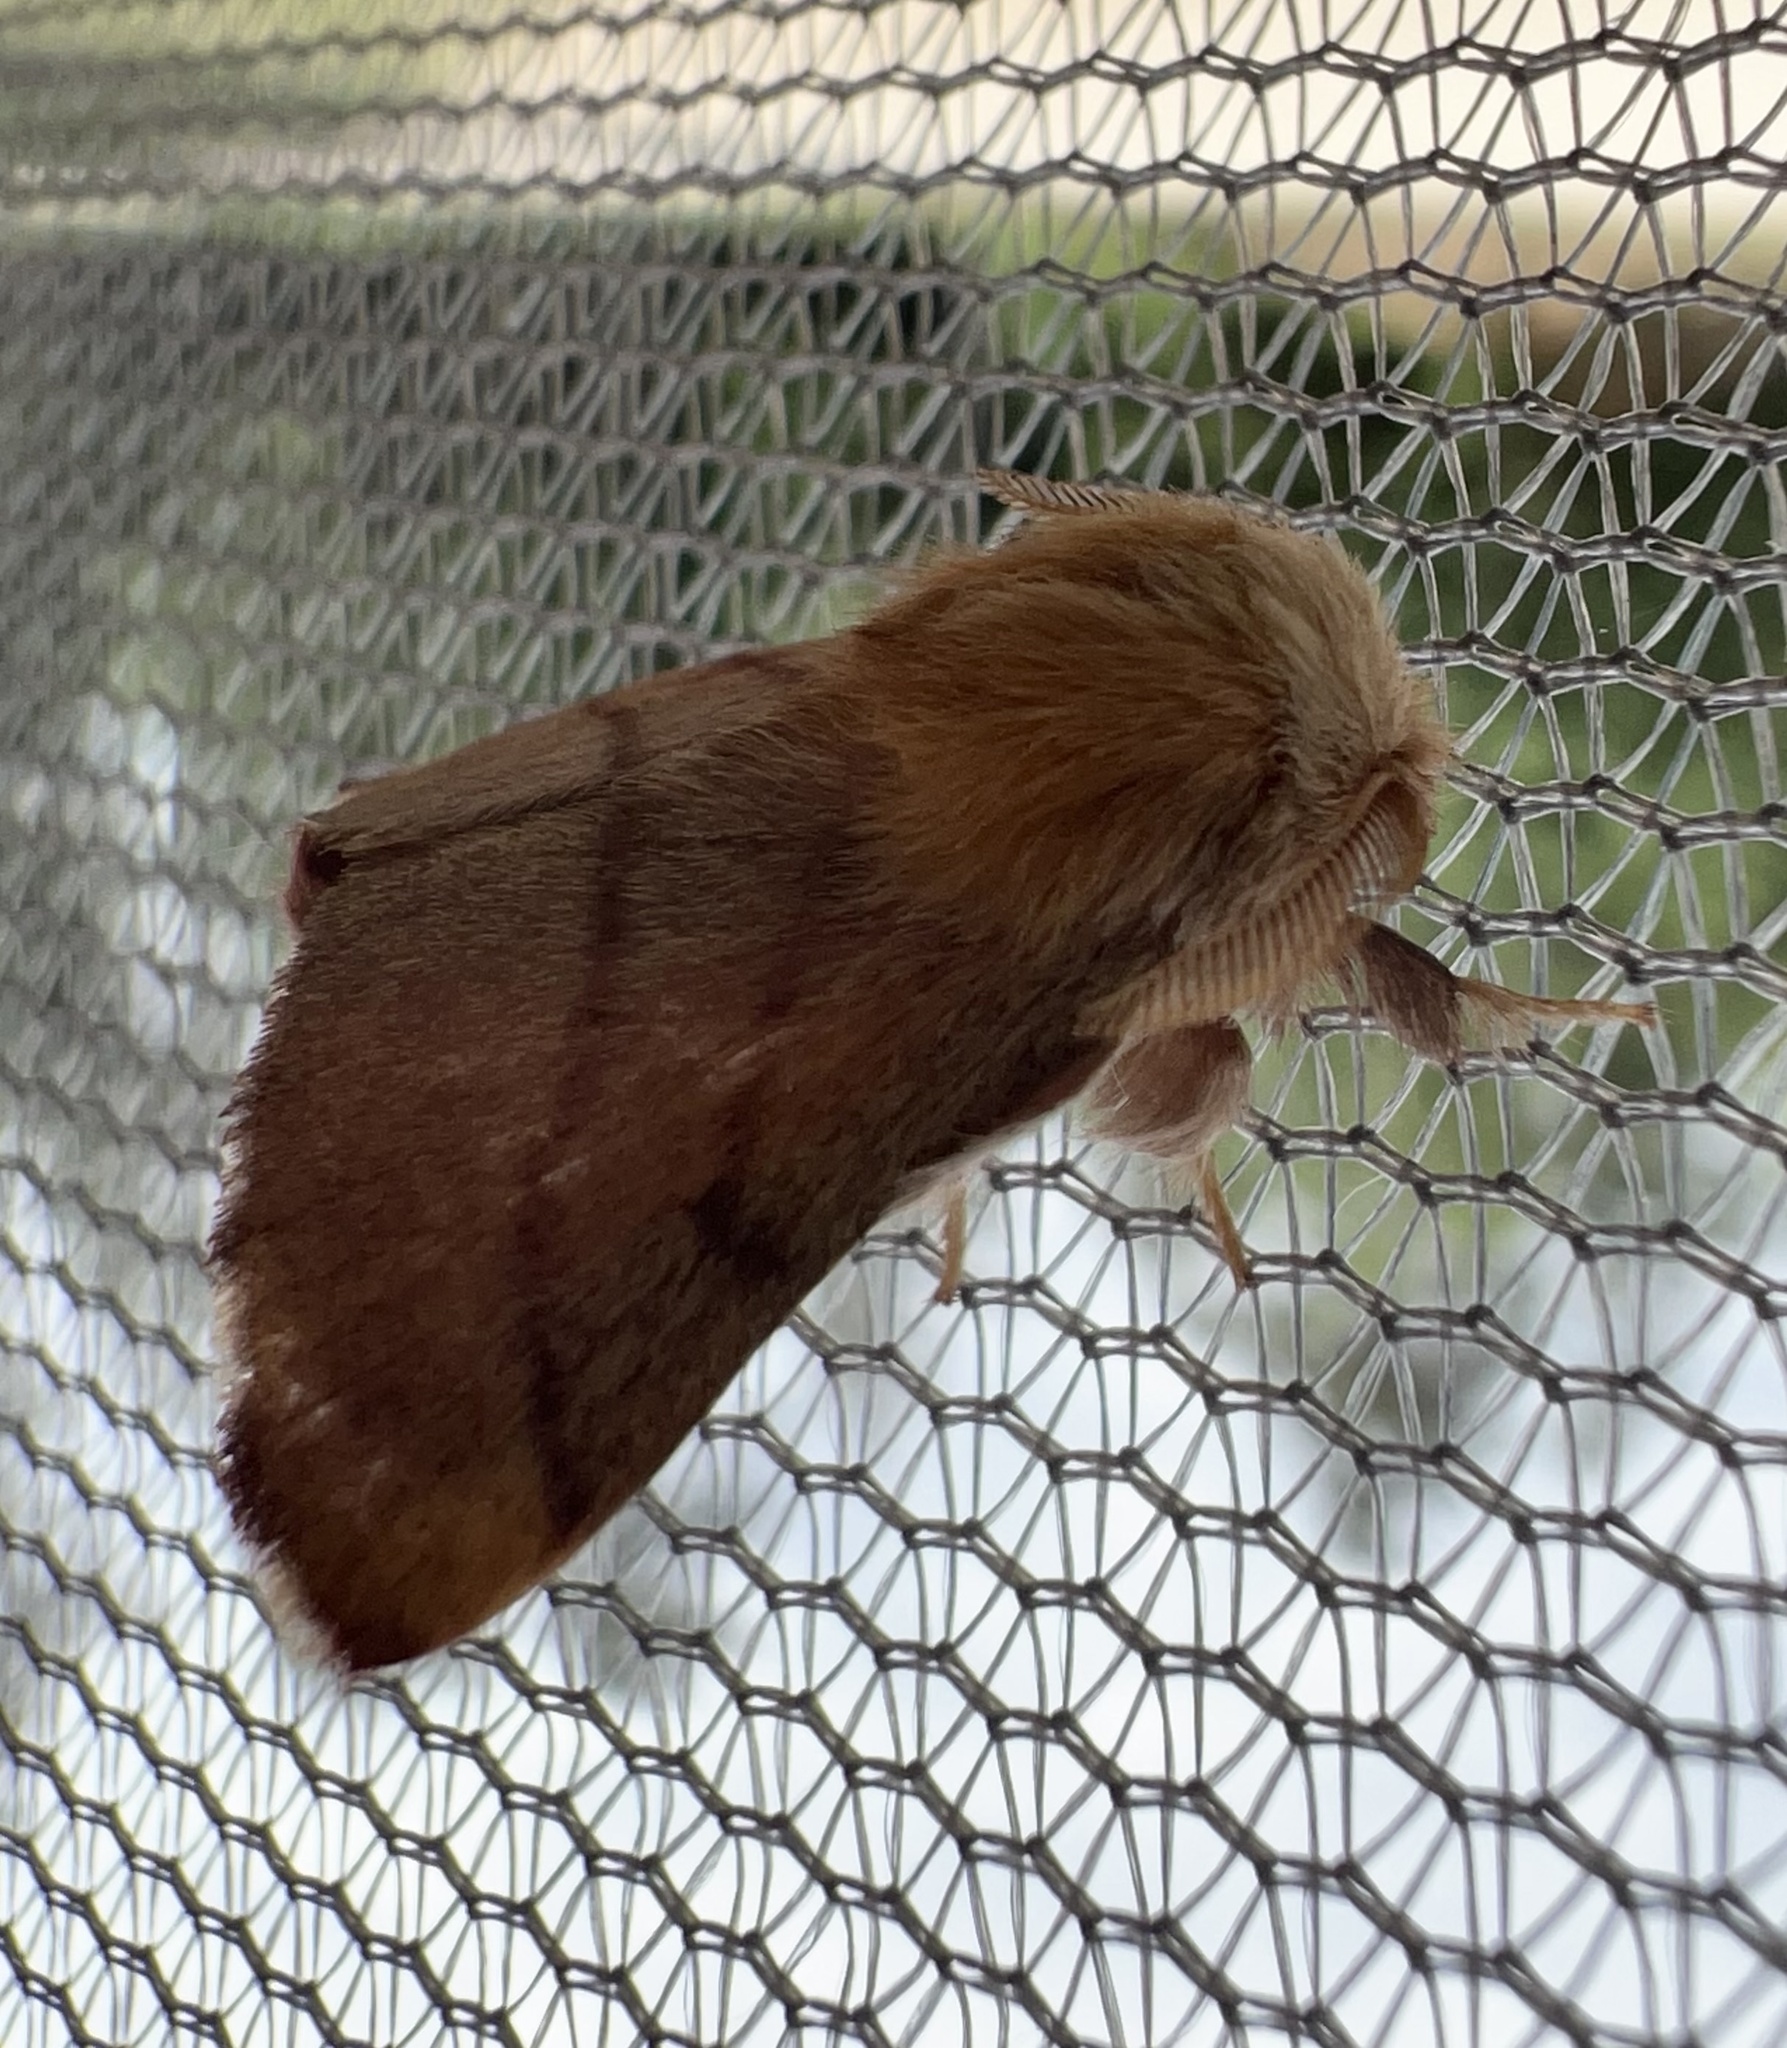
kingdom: Animalia
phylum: Arthropoda
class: Insecta
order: Lepidoptera
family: Lasiocampidae
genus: Malacosoma
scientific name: Malacosoma disstria
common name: Forest tent caterpillar
